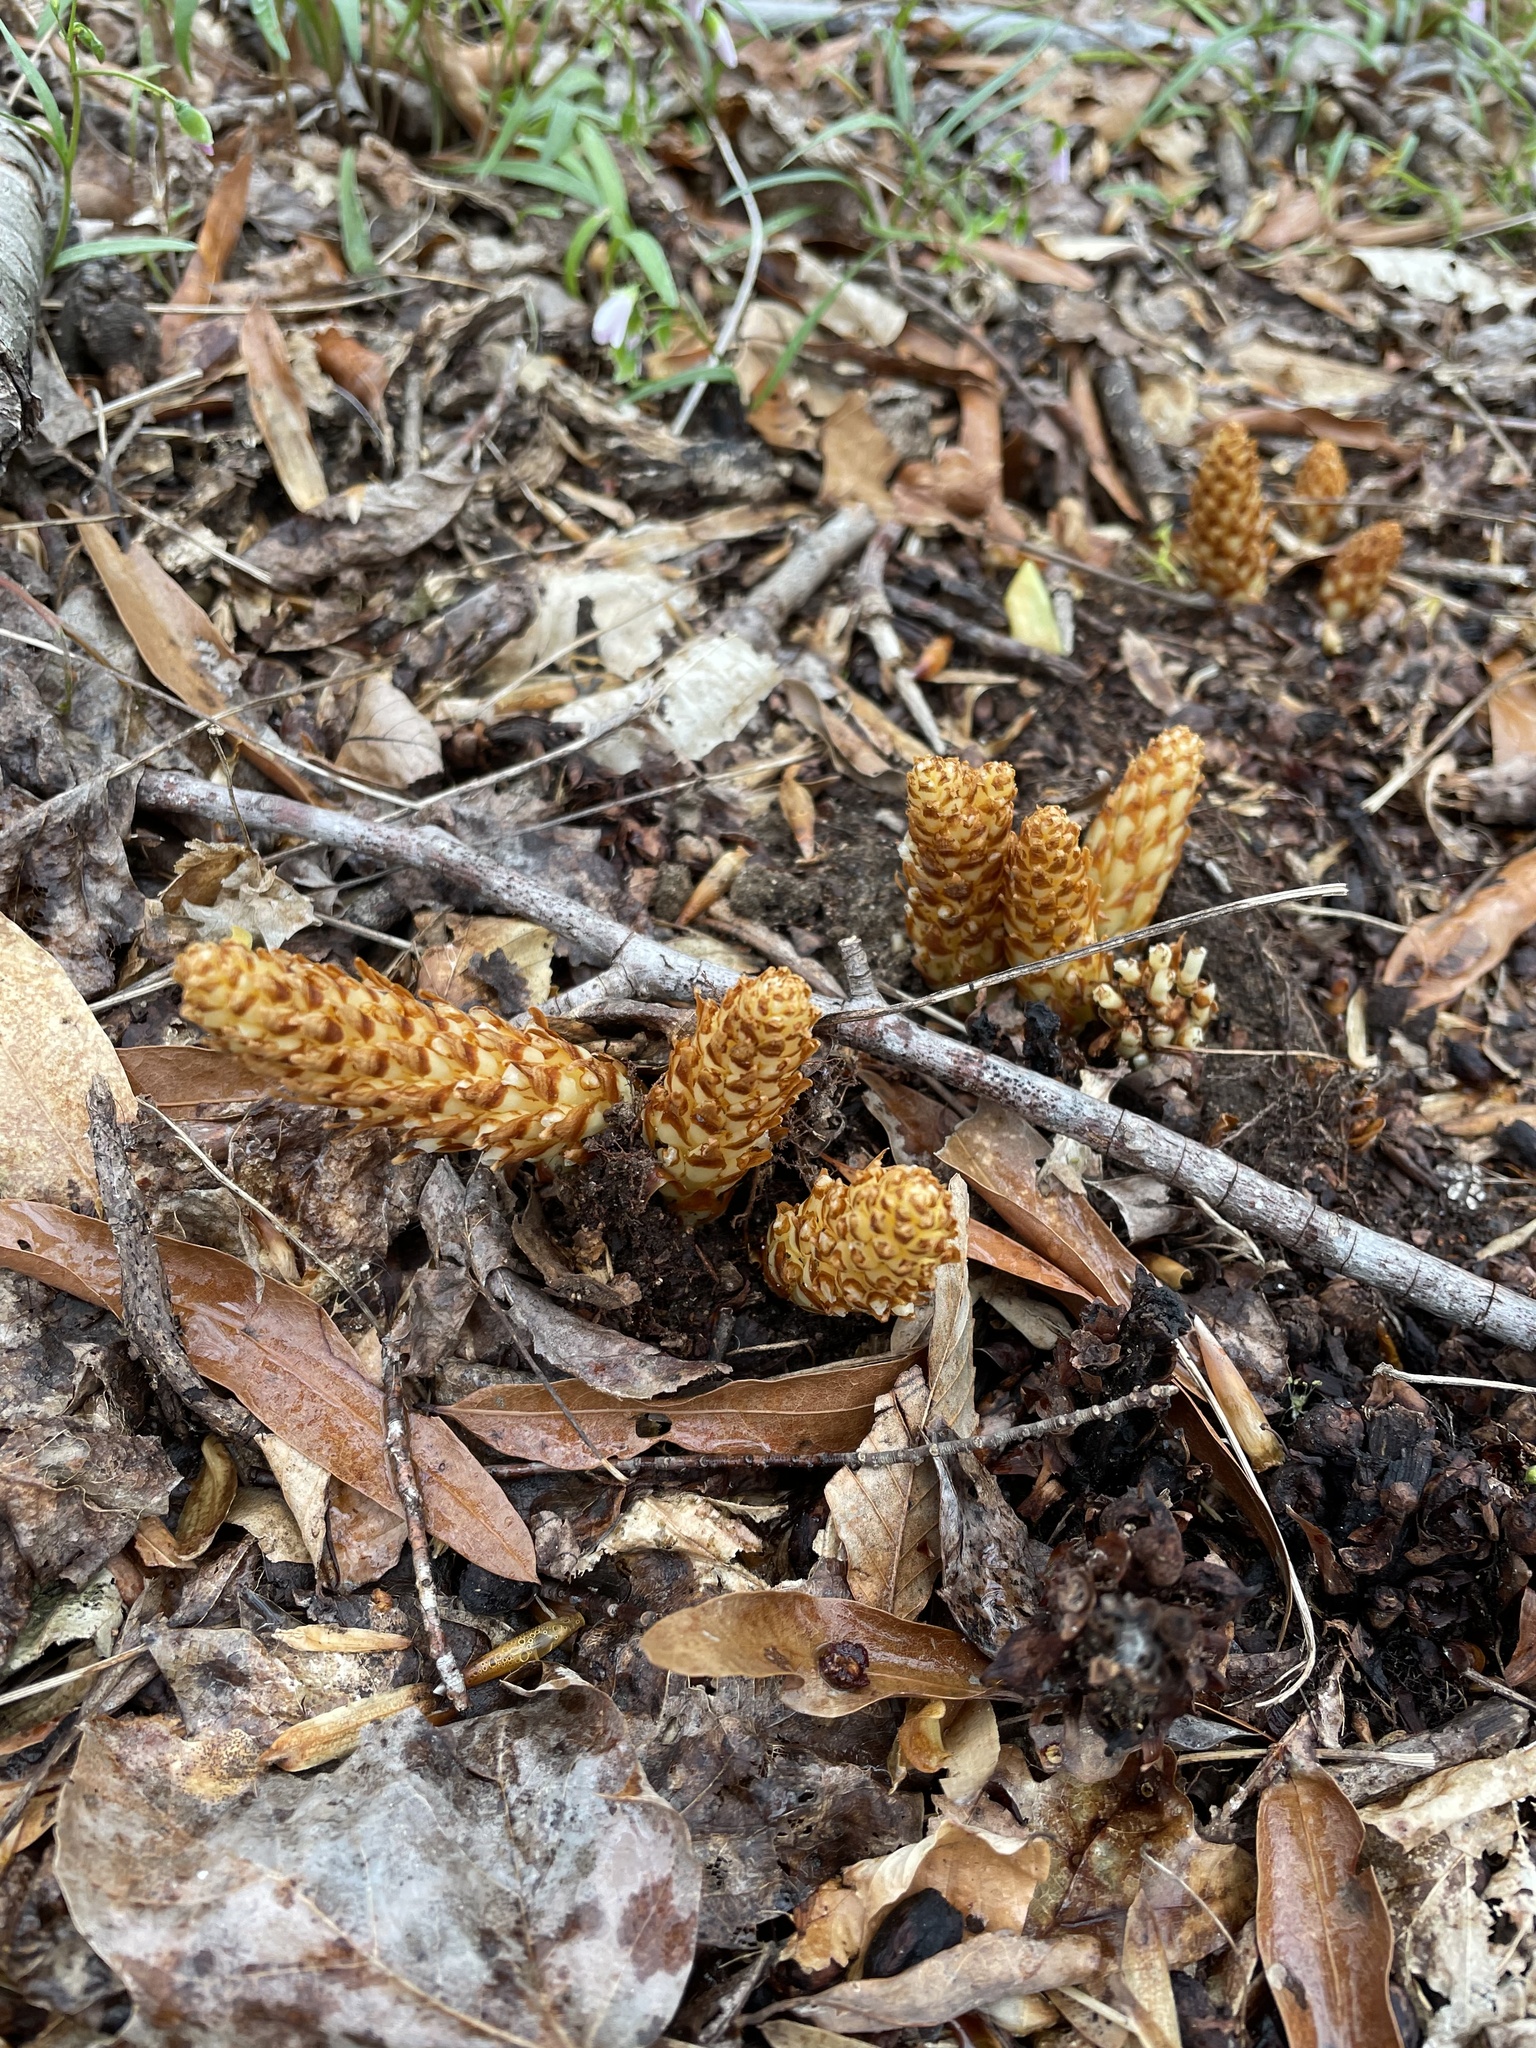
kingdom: Plantae
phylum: Tracheophyta
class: Magnoliopsida
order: Lamiales
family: Orobanchaceae
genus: Conopholis
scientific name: Conopholis americana
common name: American cancer-root
